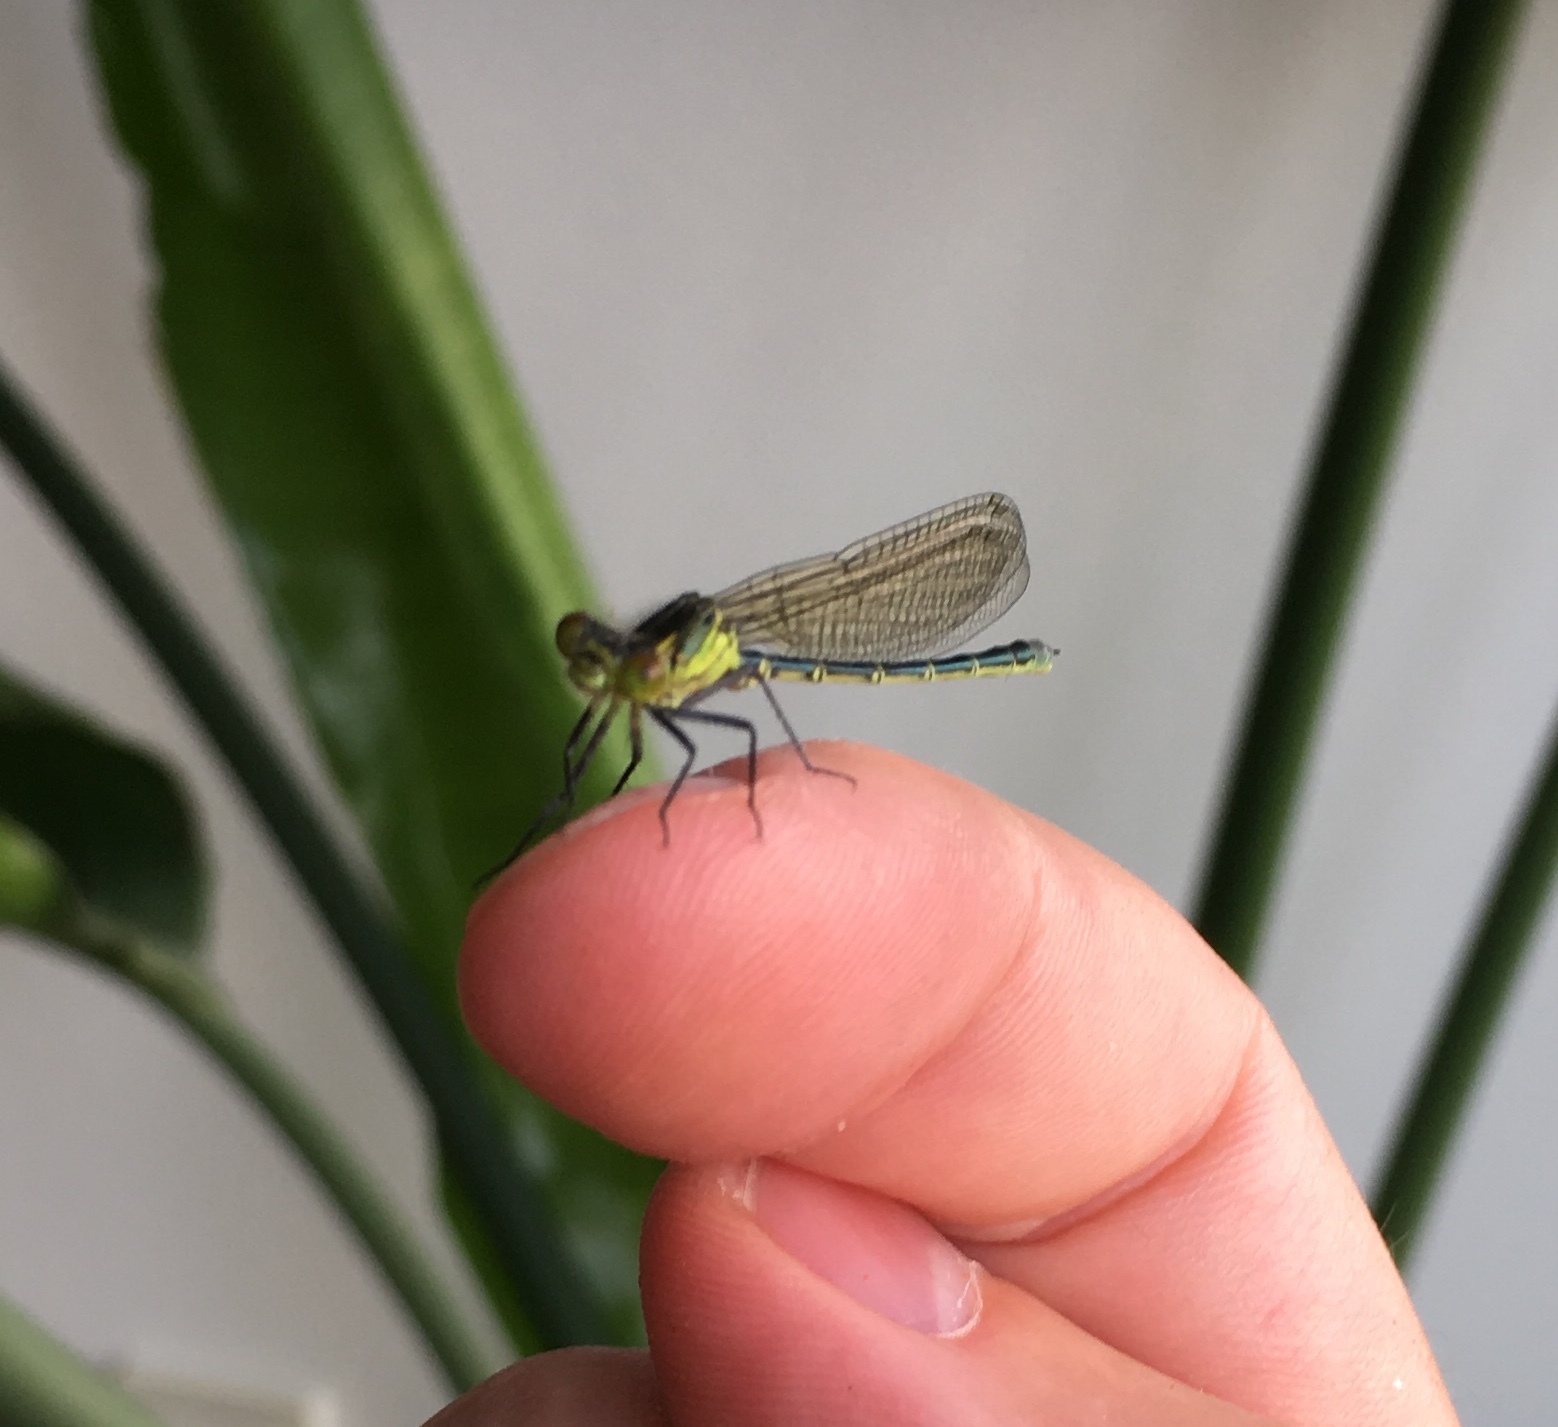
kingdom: Animalia
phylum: Arthropoda
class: Insecta
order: Odonata
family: Coenagrionidae
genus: Erythromma
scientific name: Erythromma najas
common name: Red-eyed damselfly
